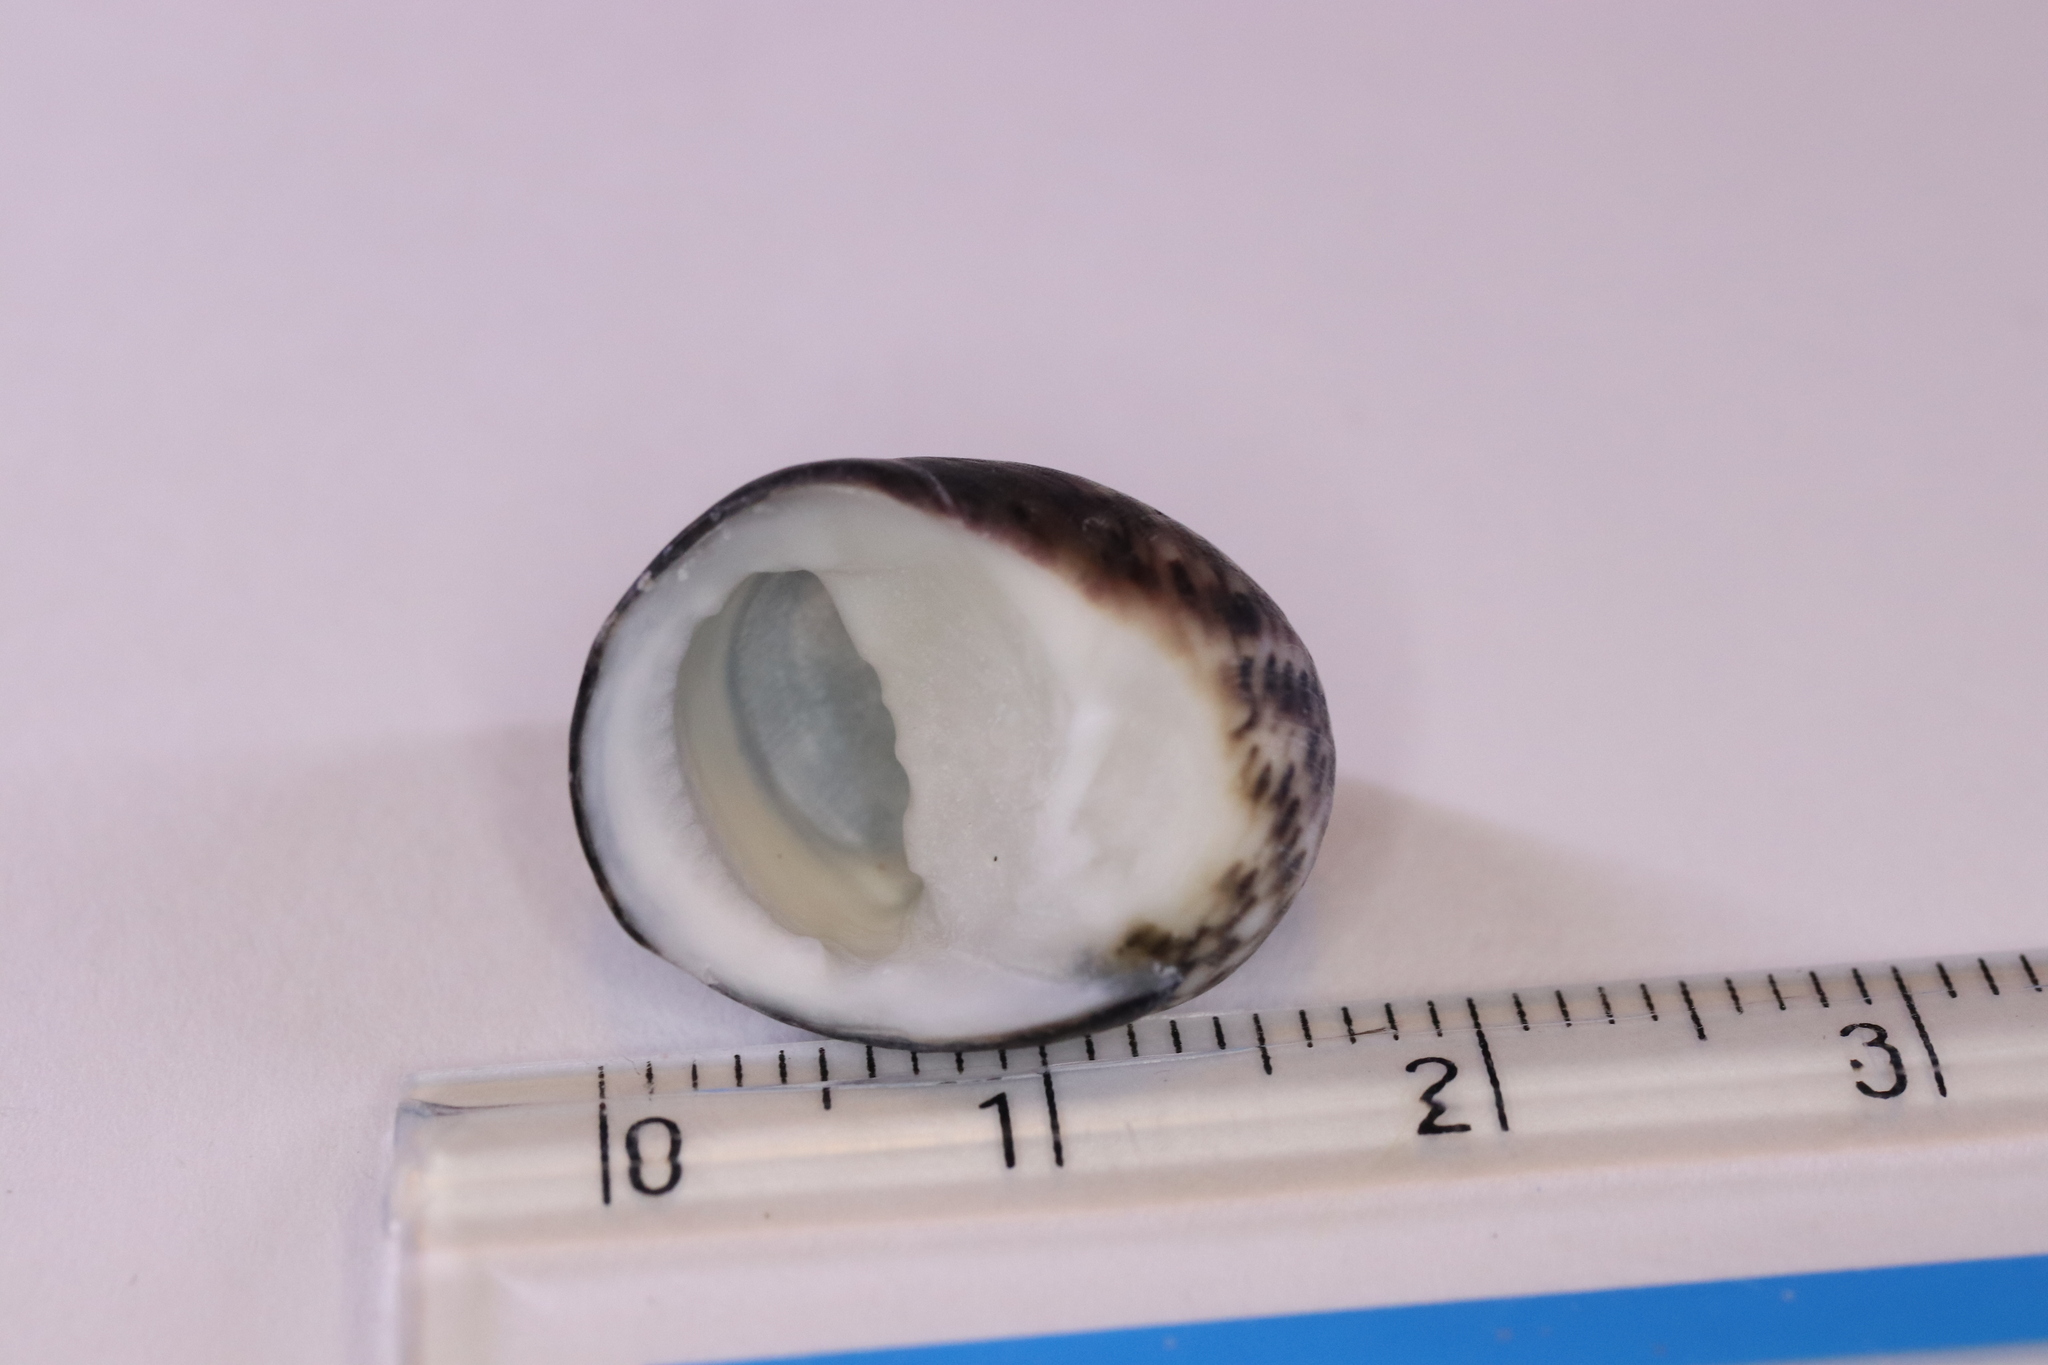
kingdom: Animalia
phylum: Mollusca
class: Gastropoda
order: Cycloneritida
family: Neritidae
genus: Nerita
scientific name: Nerita japonica
